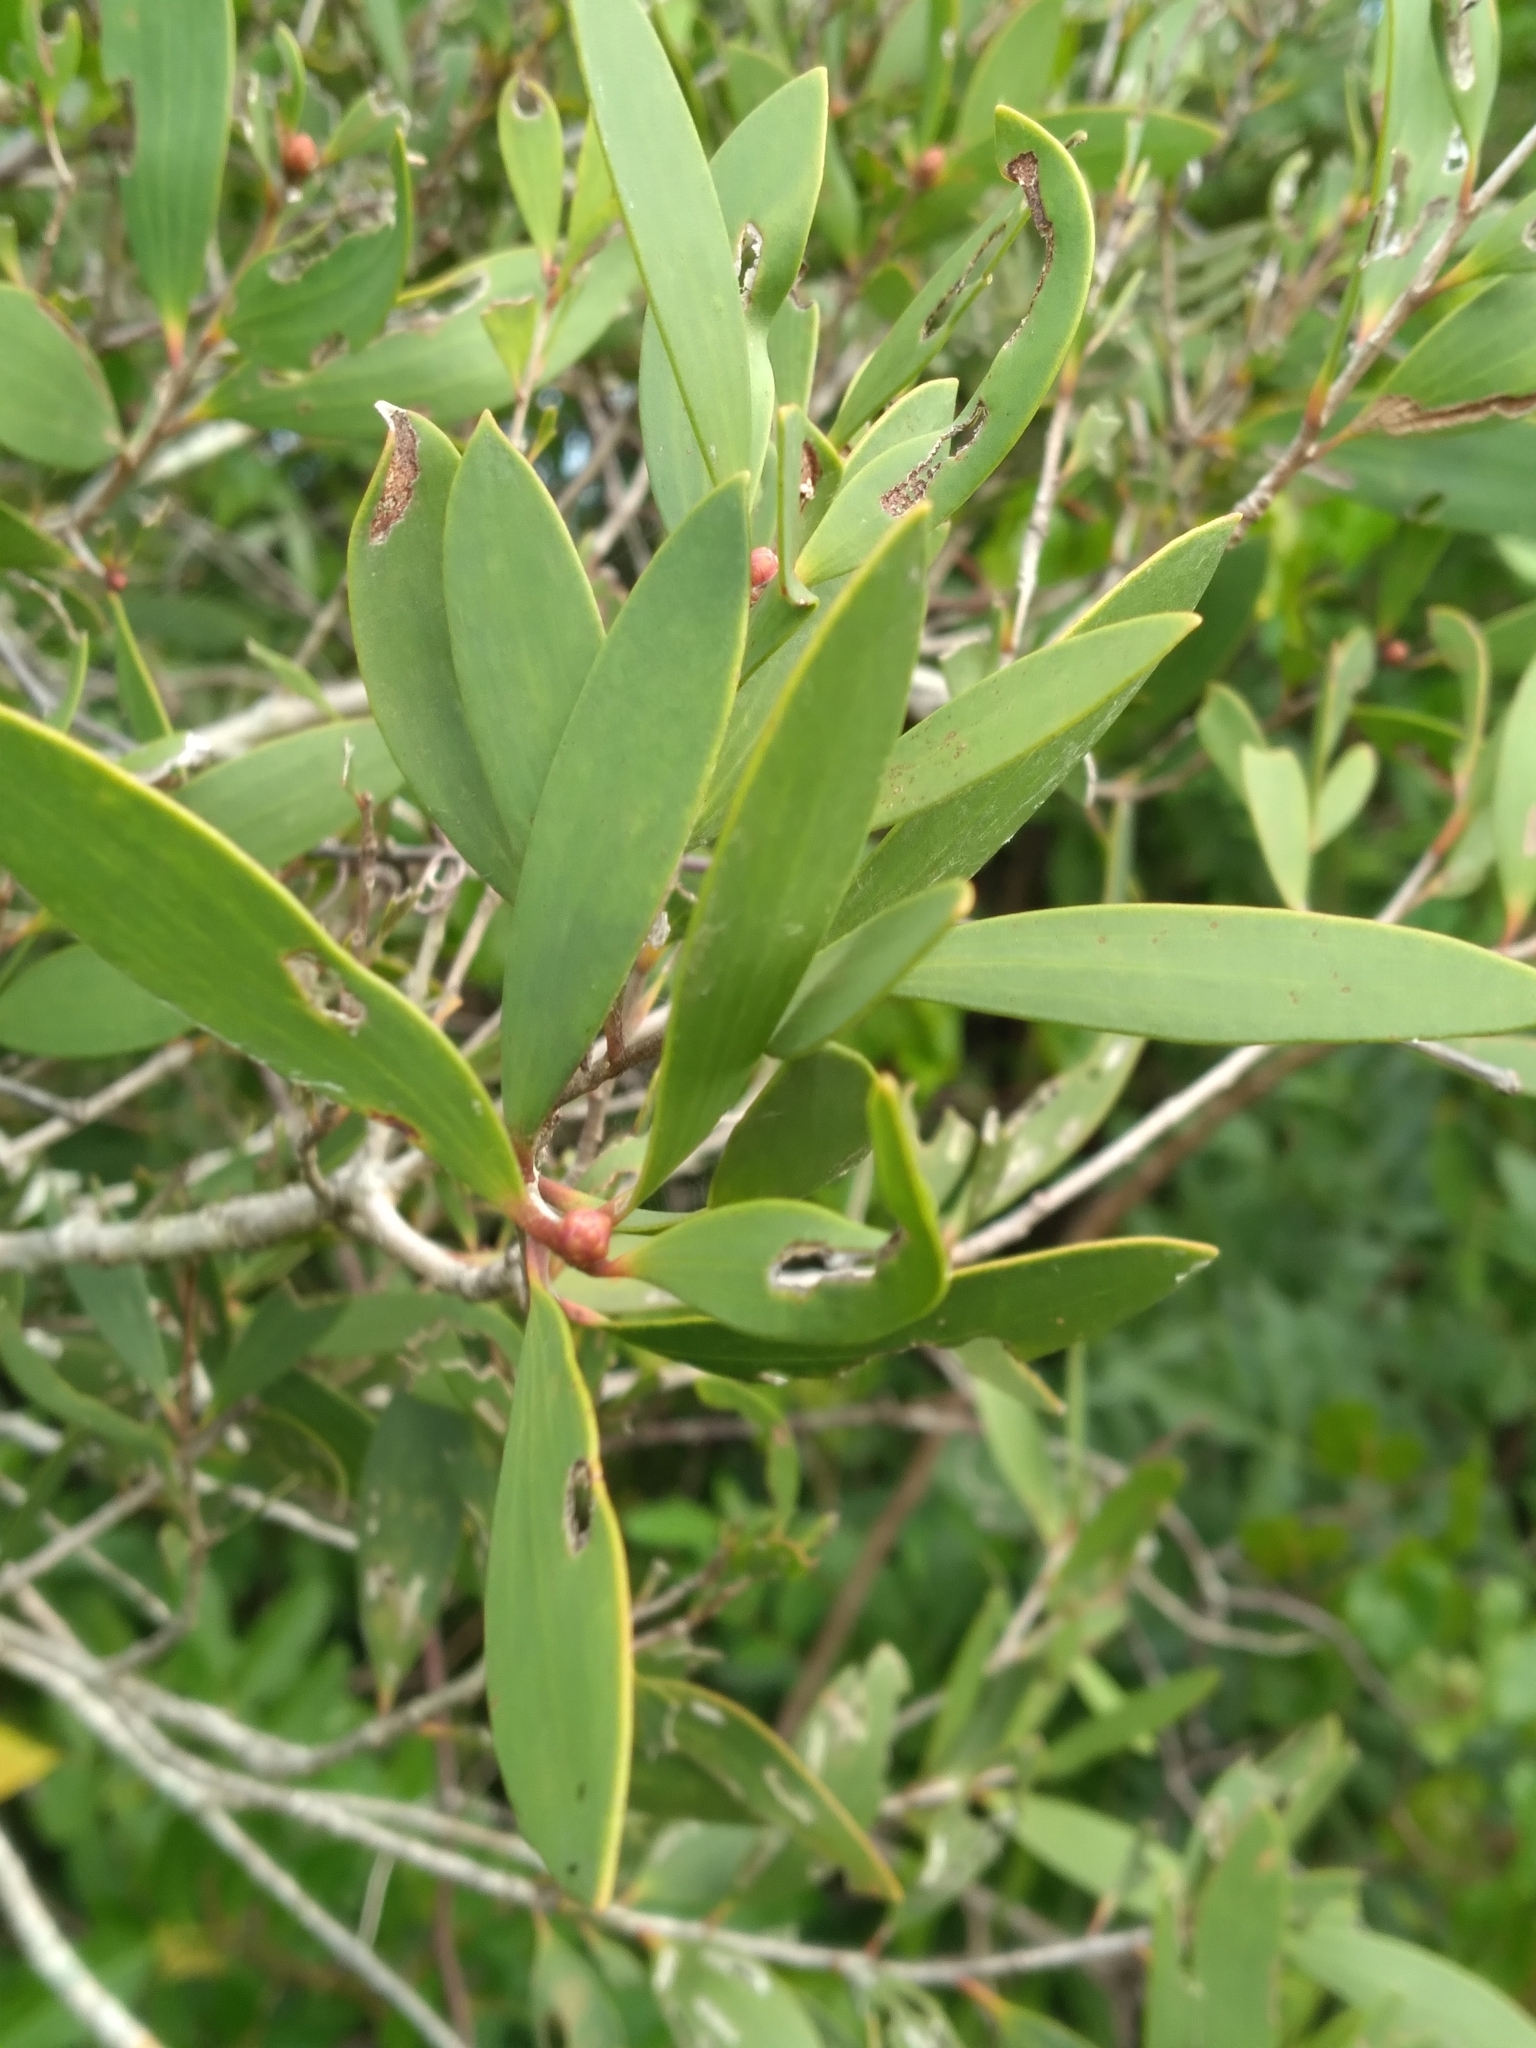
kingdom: Plantae
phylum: Tracheophyta
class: Magnoliopsida
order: Myrtales
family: Myrtaceae
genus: Melaleuca
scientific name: Melaleuca quinquenervia
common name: Punktree
